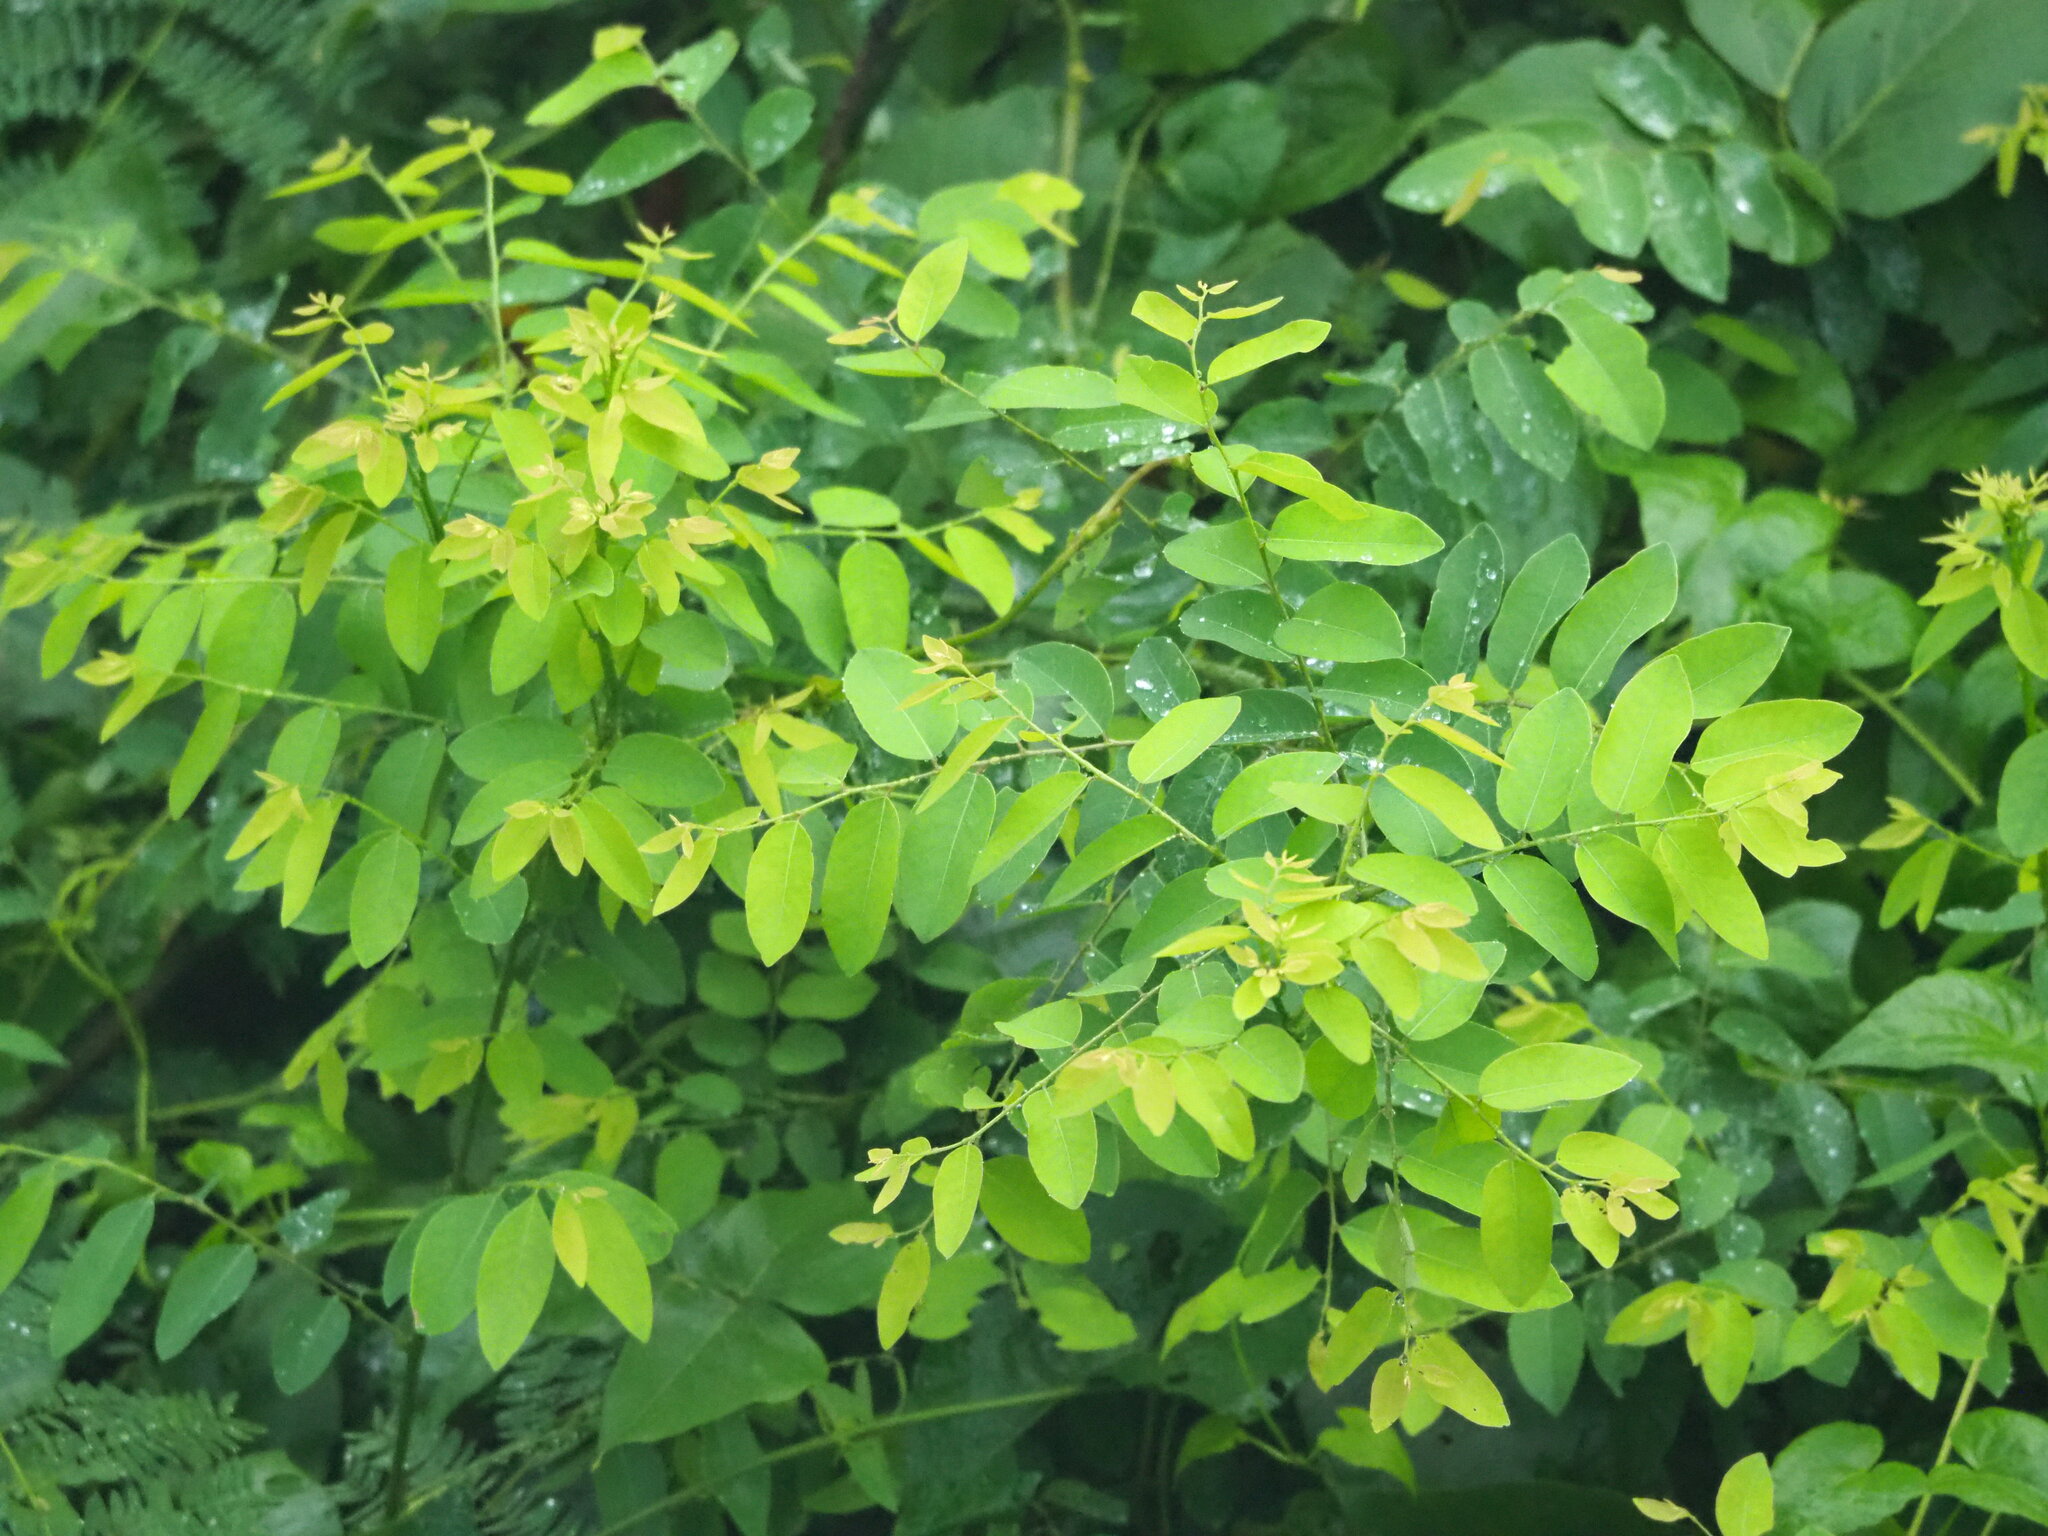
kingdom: Plantae
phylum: Tracheophyta
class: Magnoliopsida
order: Malpighiales
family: Phyllanthaceae
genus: Phyllanthus
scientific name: Phyllanthus reticulatus
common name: Potato bush
